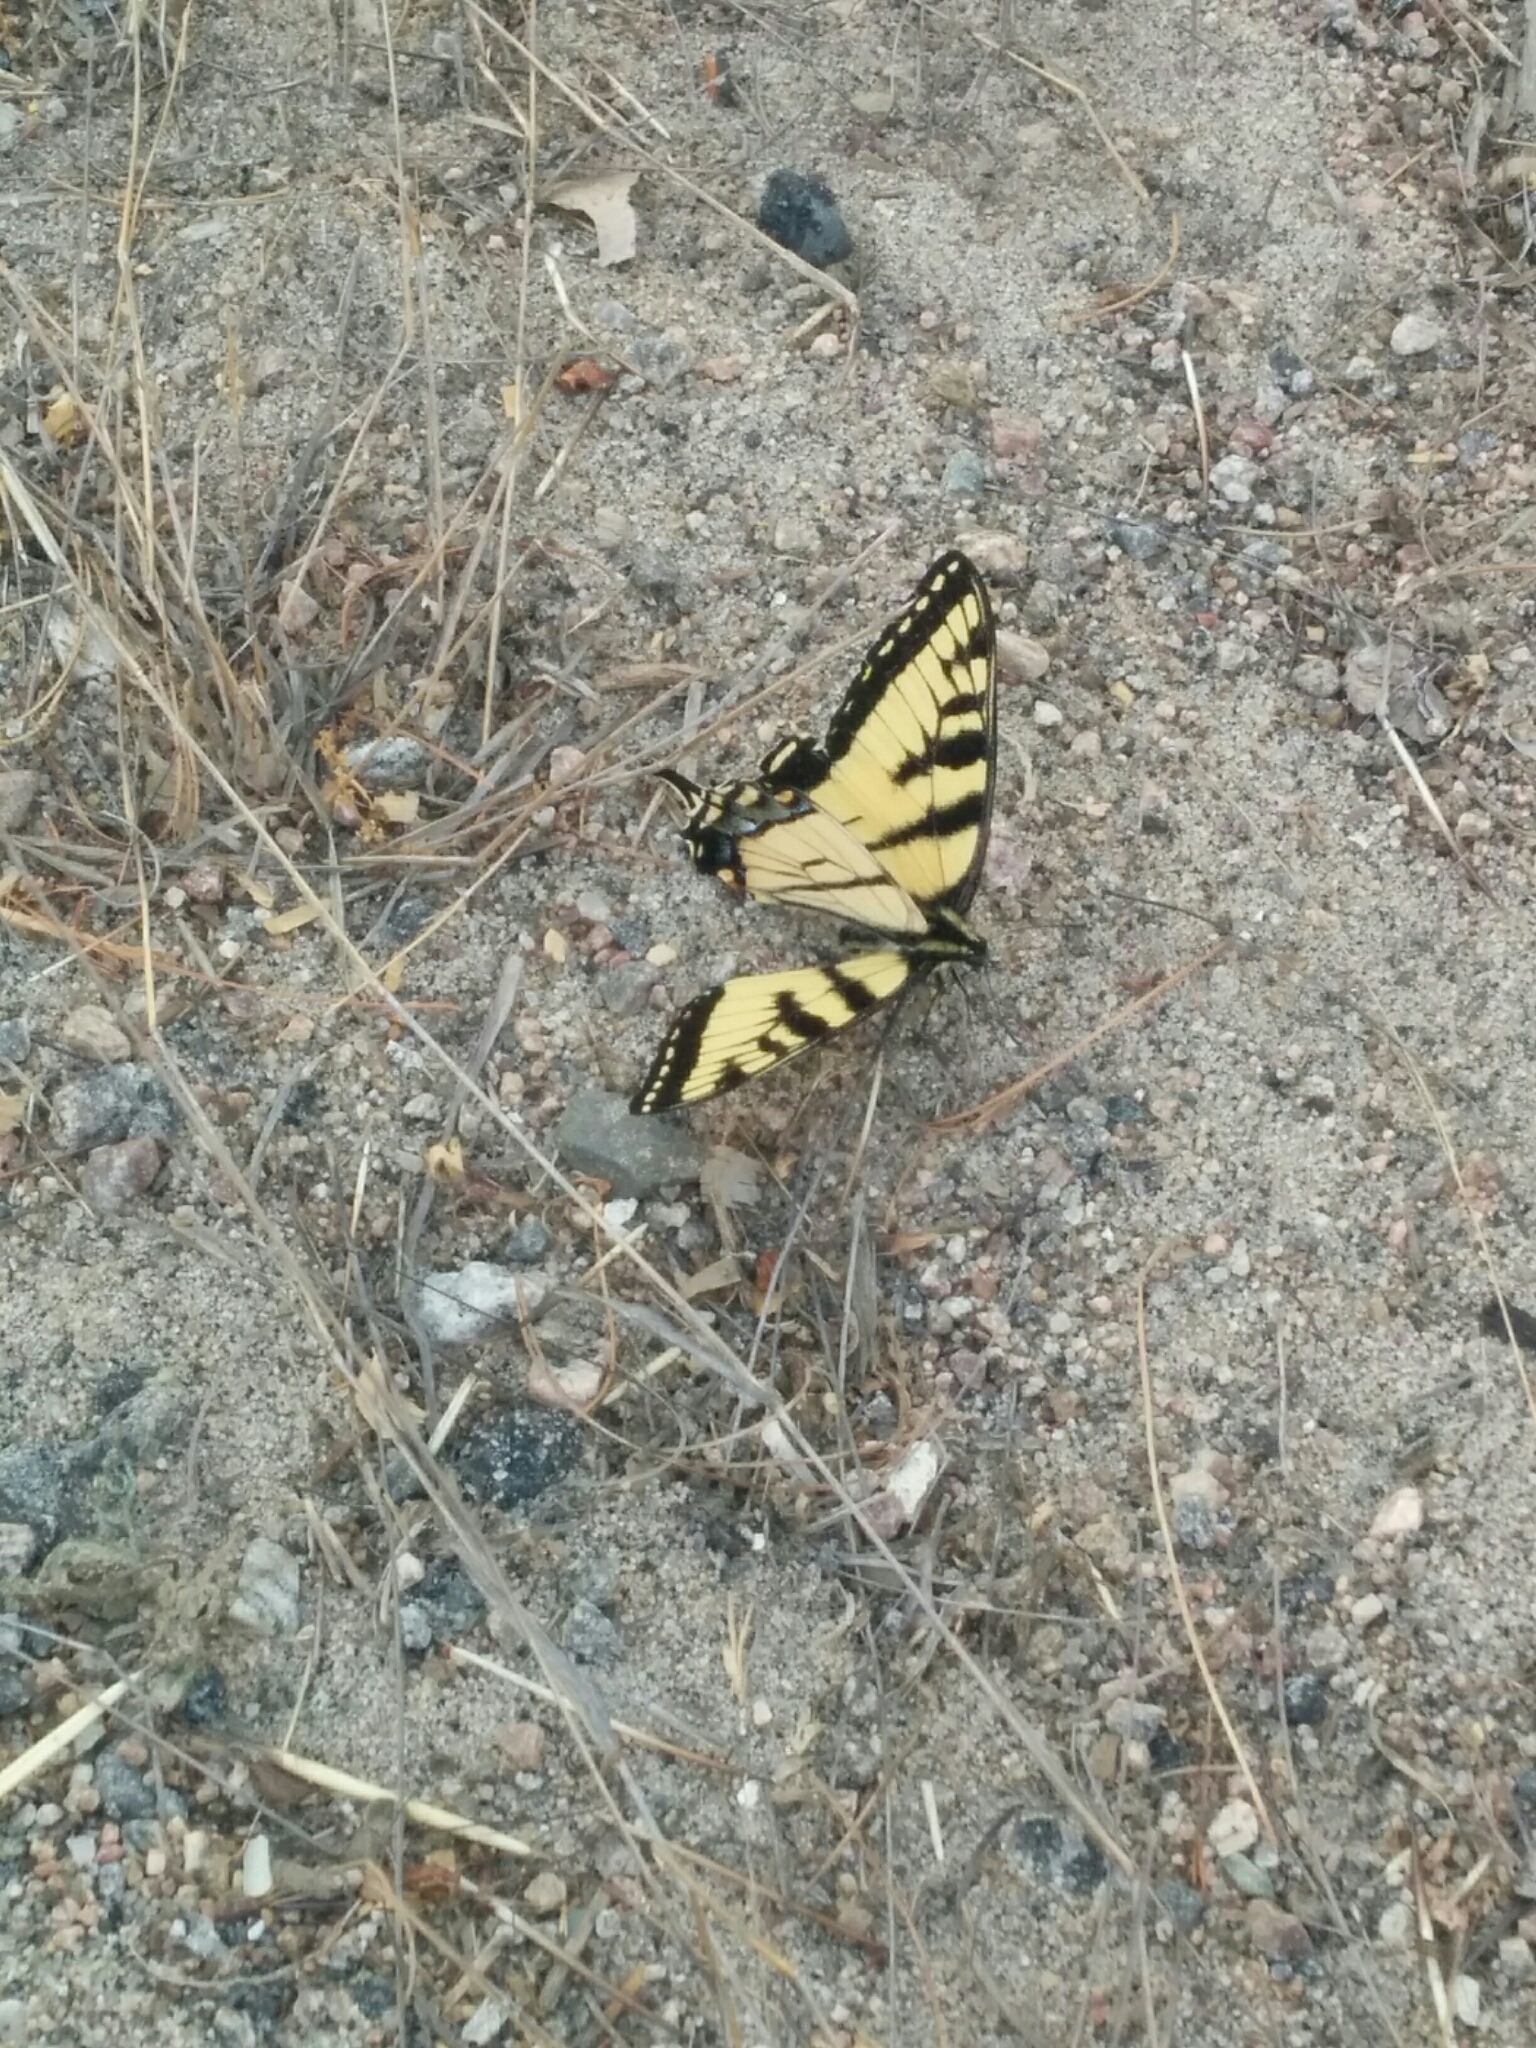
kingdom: Animalia
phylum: Arthropoda
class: Insecta
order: Lepidoptera
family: Papilionidae
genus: Papilio
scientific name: Papilio canadensis
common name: Canadian tiger swallowtail
